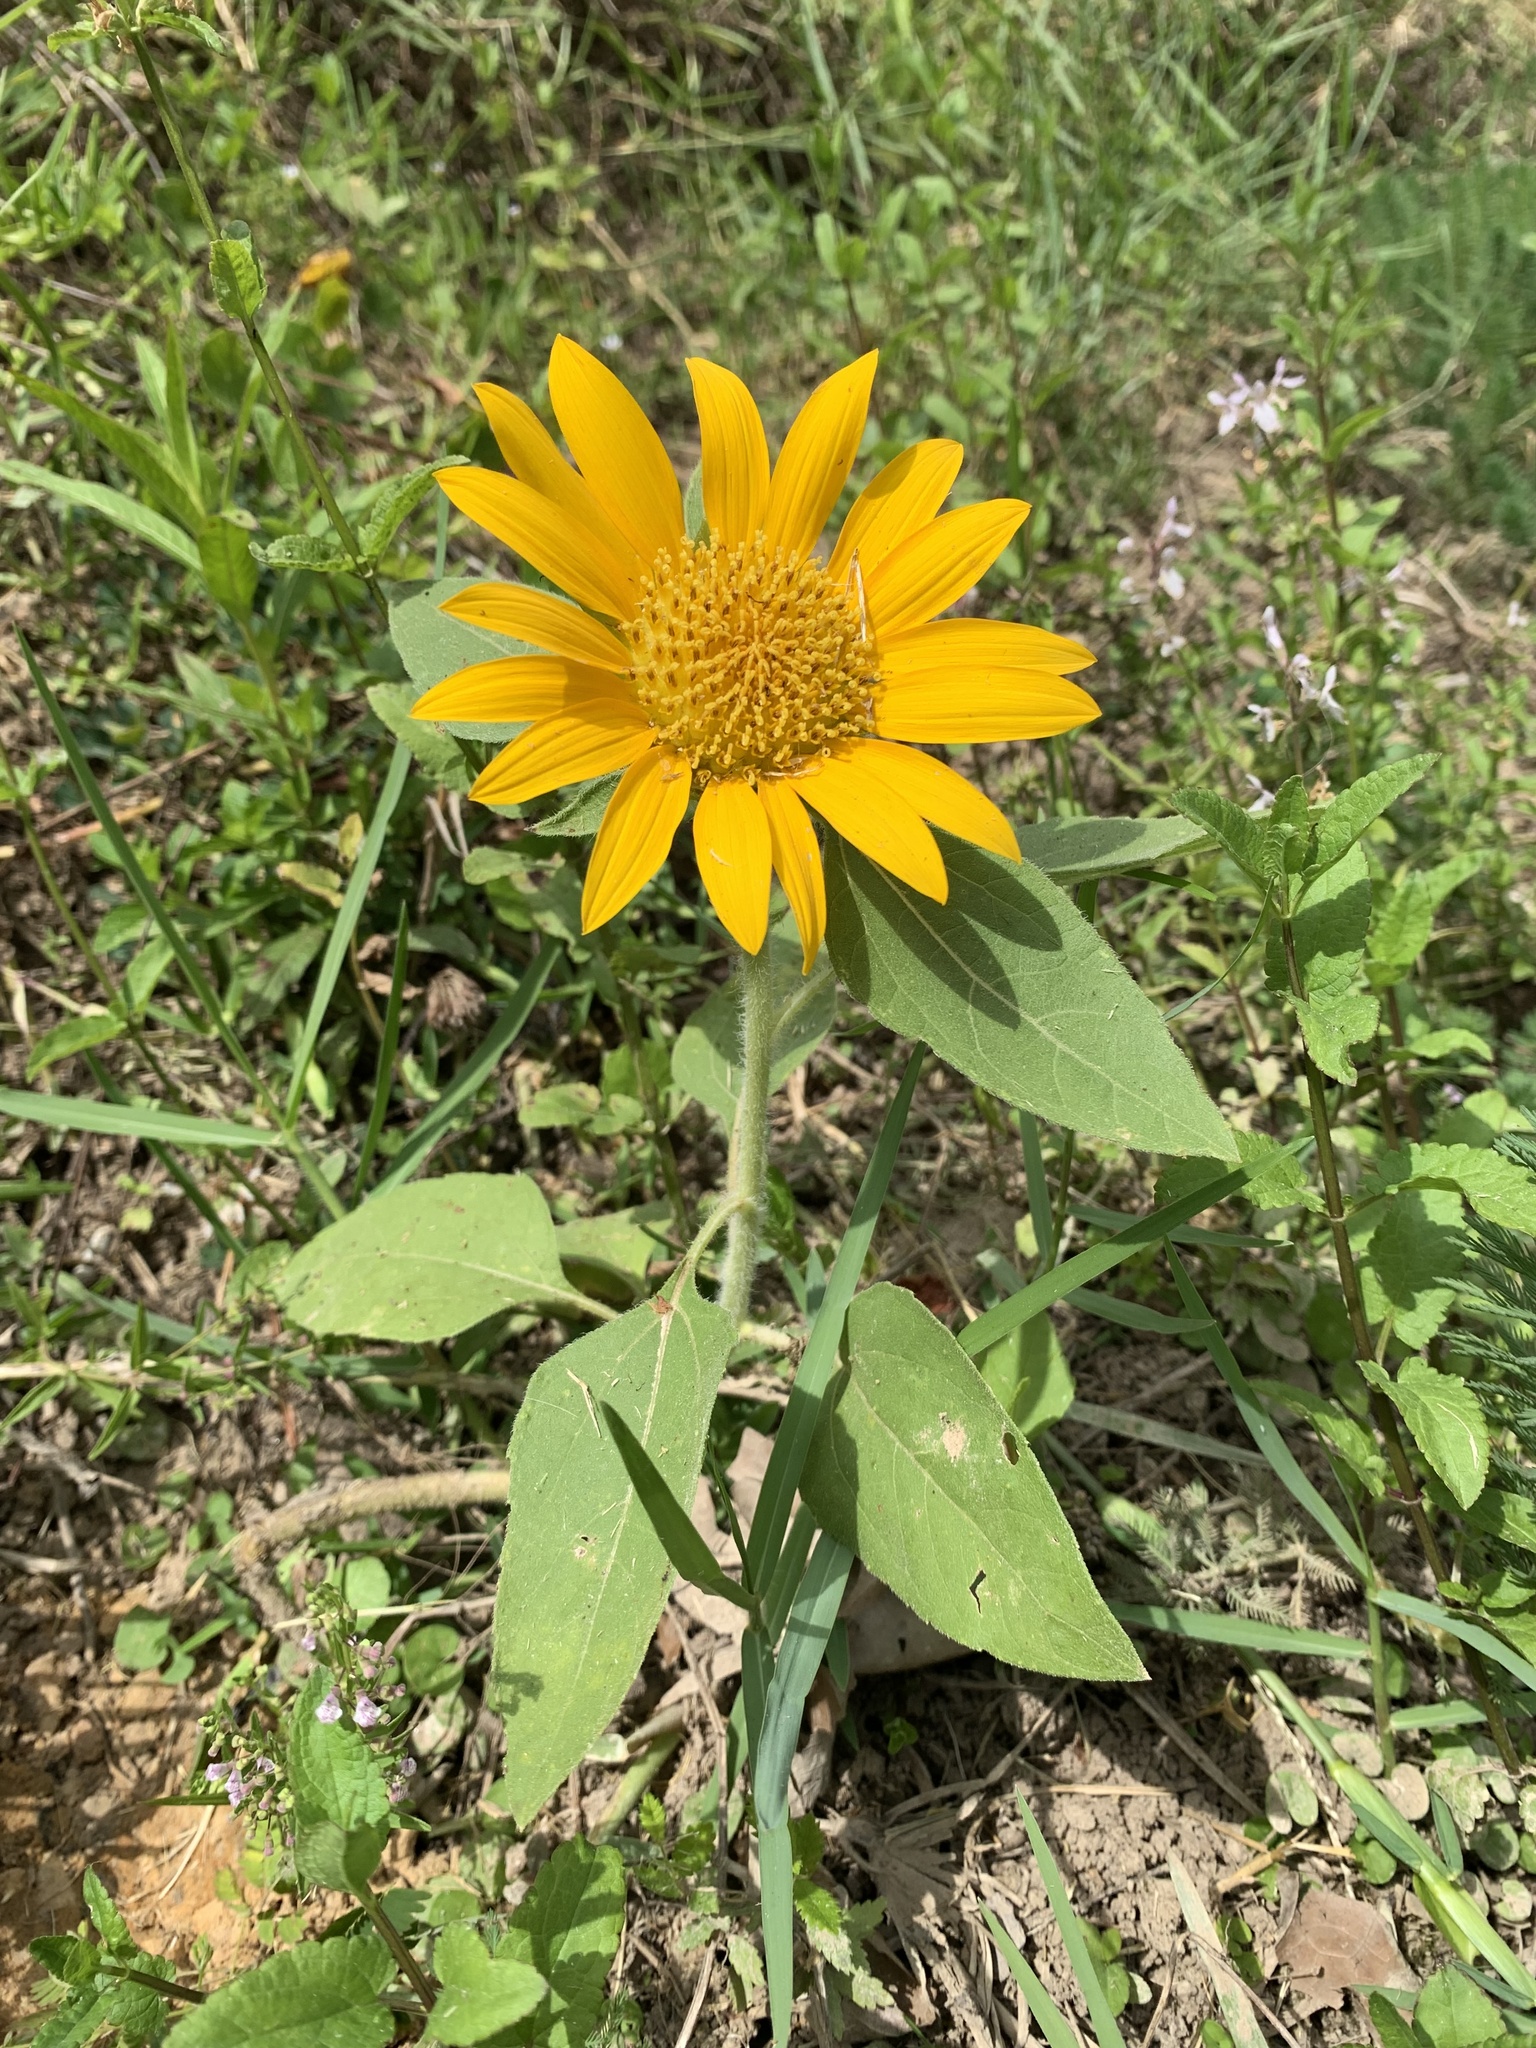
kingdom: Plantae
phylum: Tracheophyta
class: Magnoliopsida
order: Asterales
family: Asteraceae
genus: Helianthus
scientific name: Helianthus annuus
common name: Sunflower
